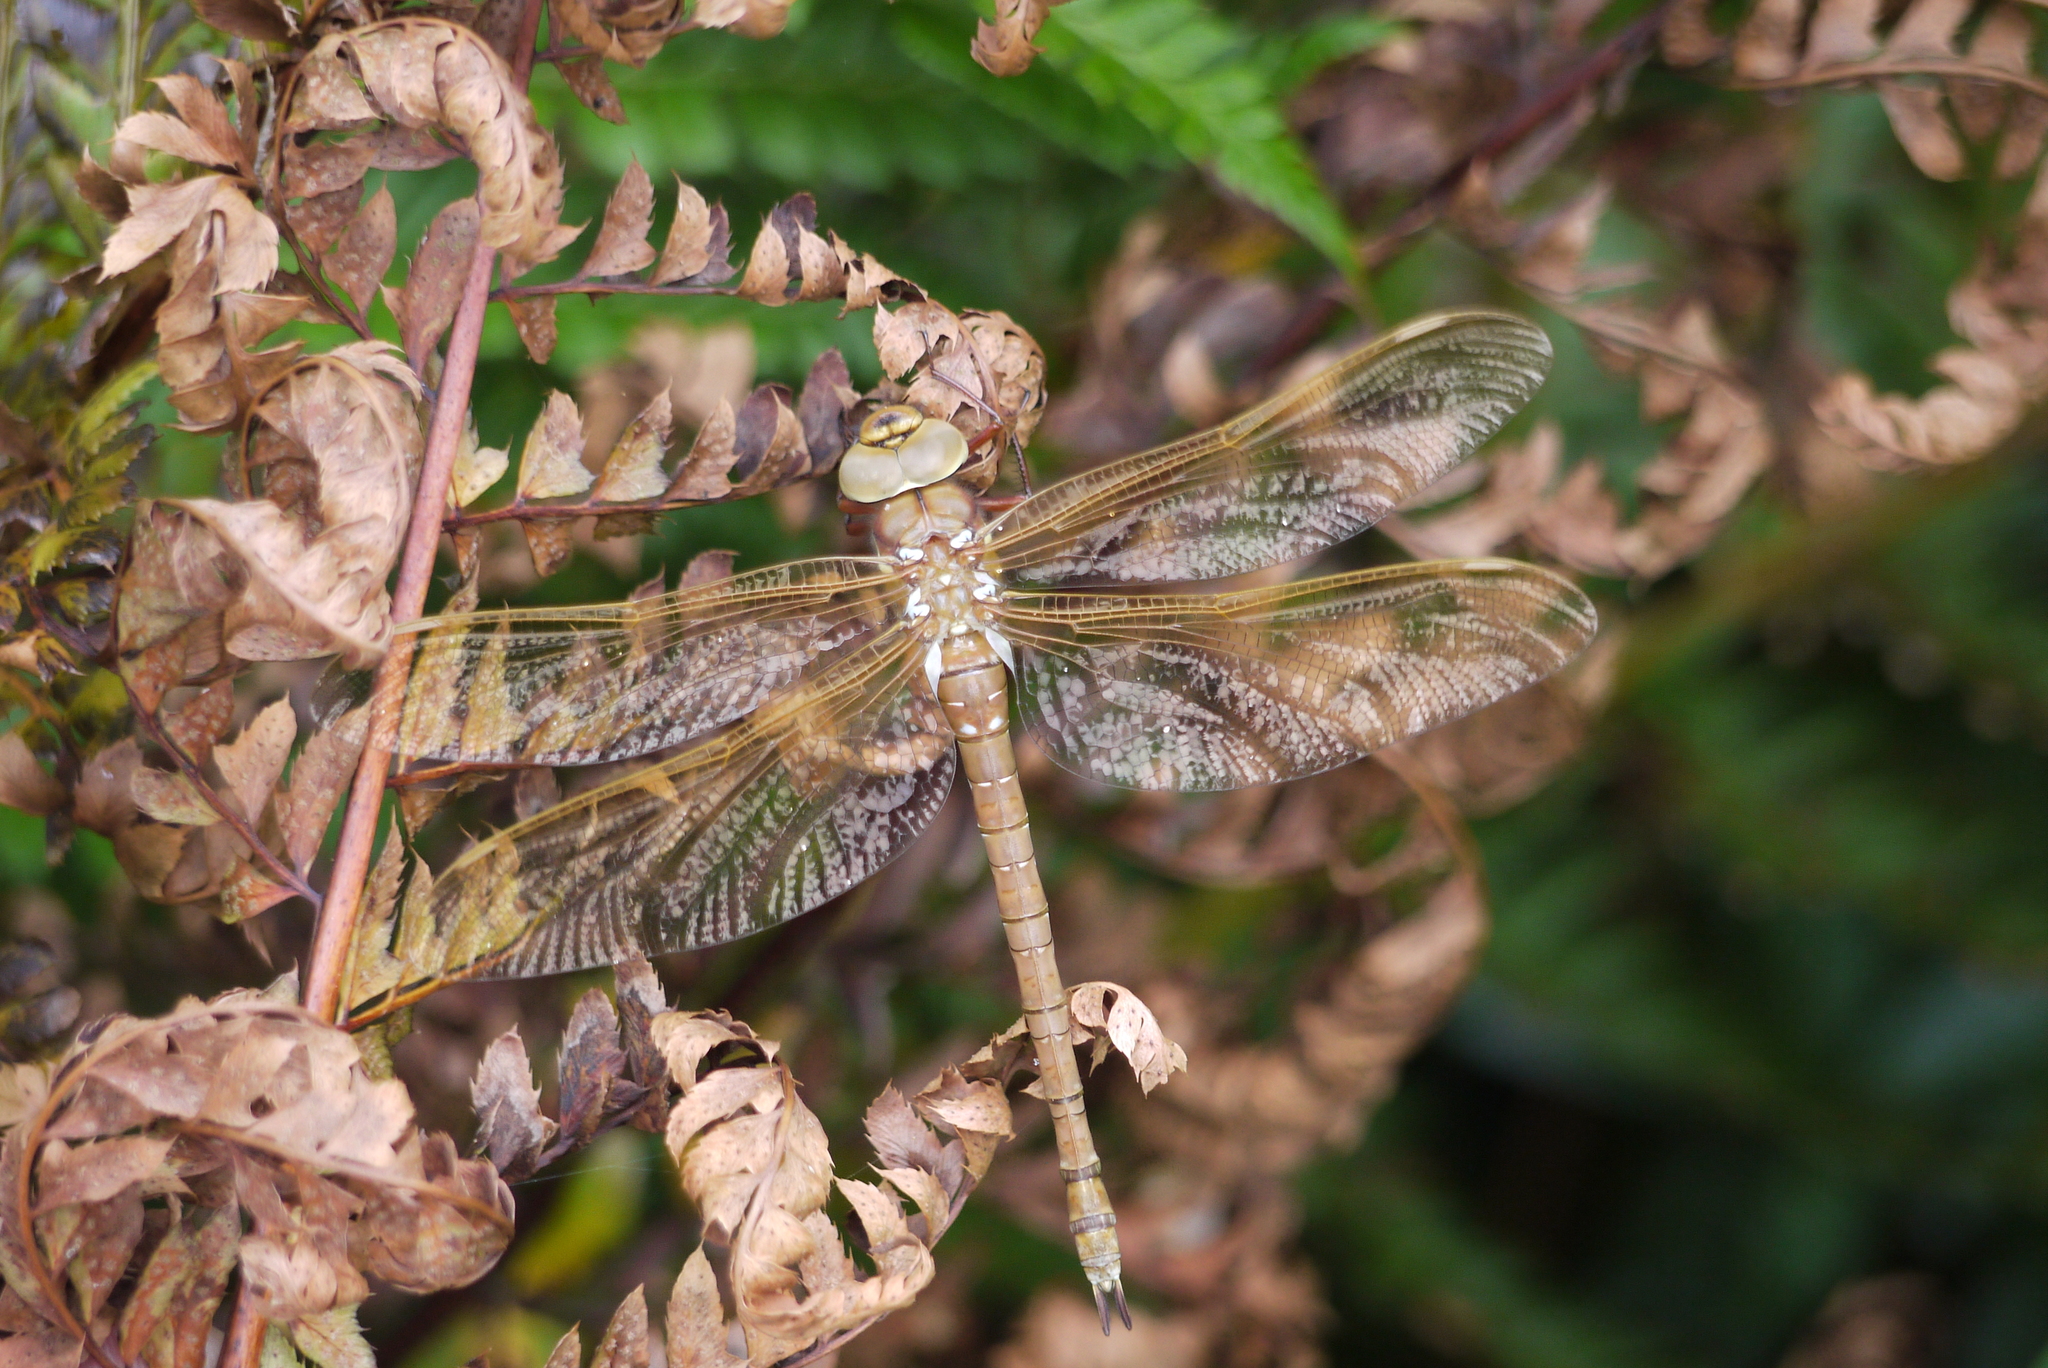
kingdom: Animalia
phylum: Arthropoda
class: Insecta
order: Odonata
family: Aeshnidae
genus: Aeshna
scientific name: Aeshna grandis
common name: Brown hawker
